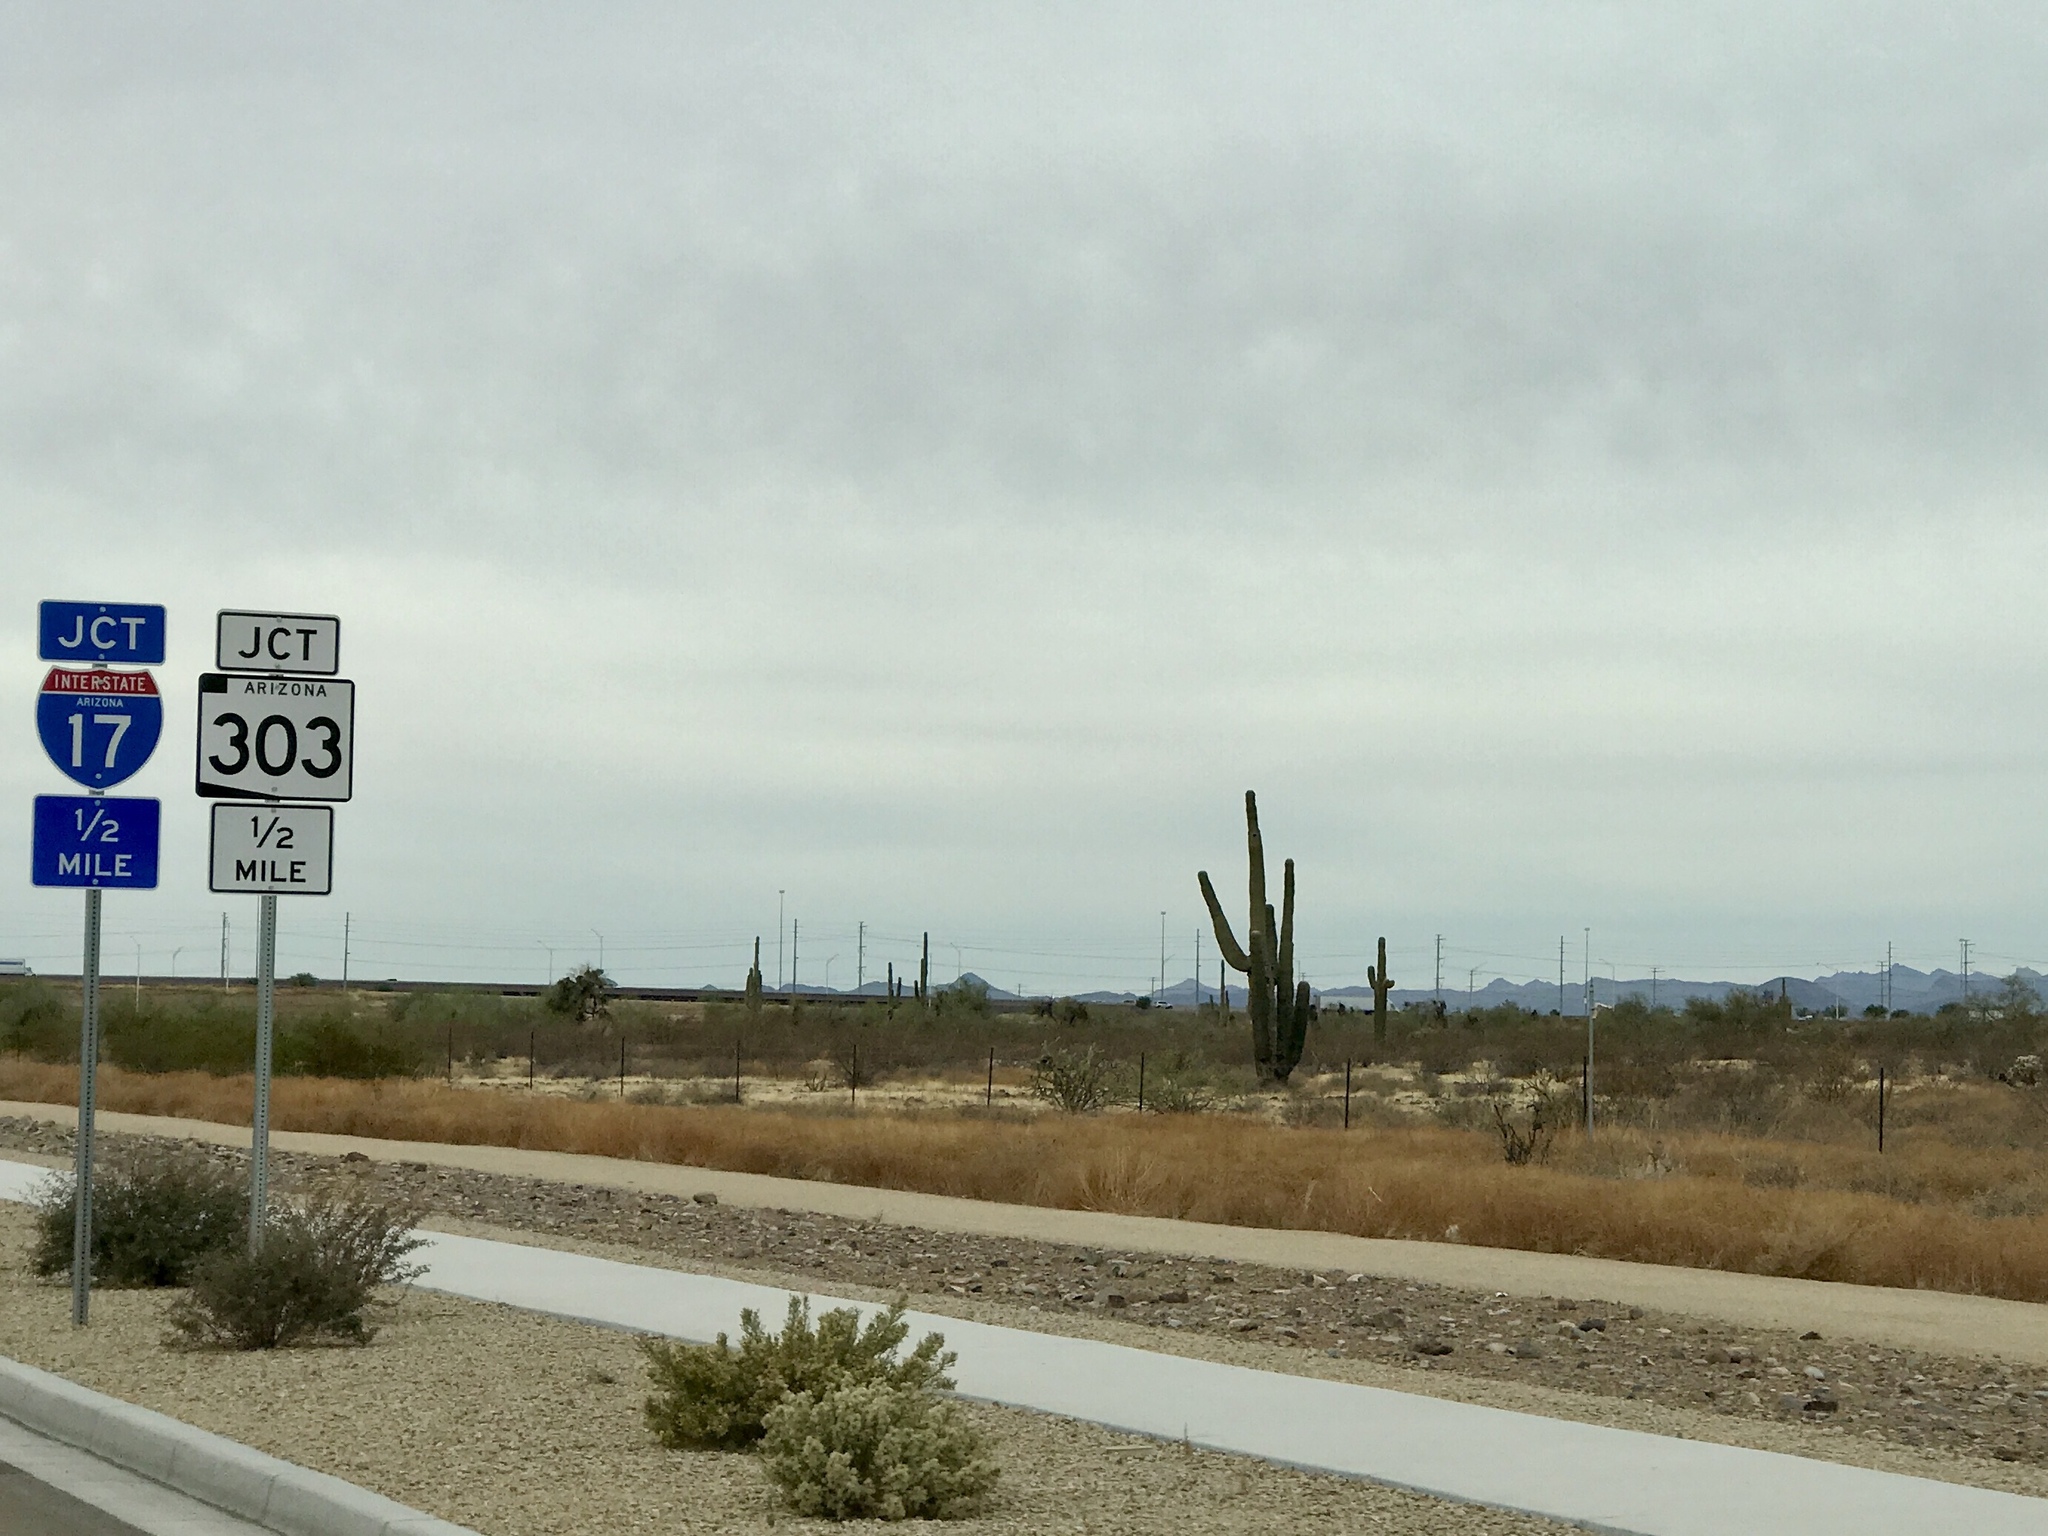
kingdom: Plantae
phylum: Tracheophyta
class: Magnoliopsida
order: Caryophyllales
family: Cactaceae
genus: Carnegiea
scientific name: Carnegiea gigantea
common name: Saguaro
